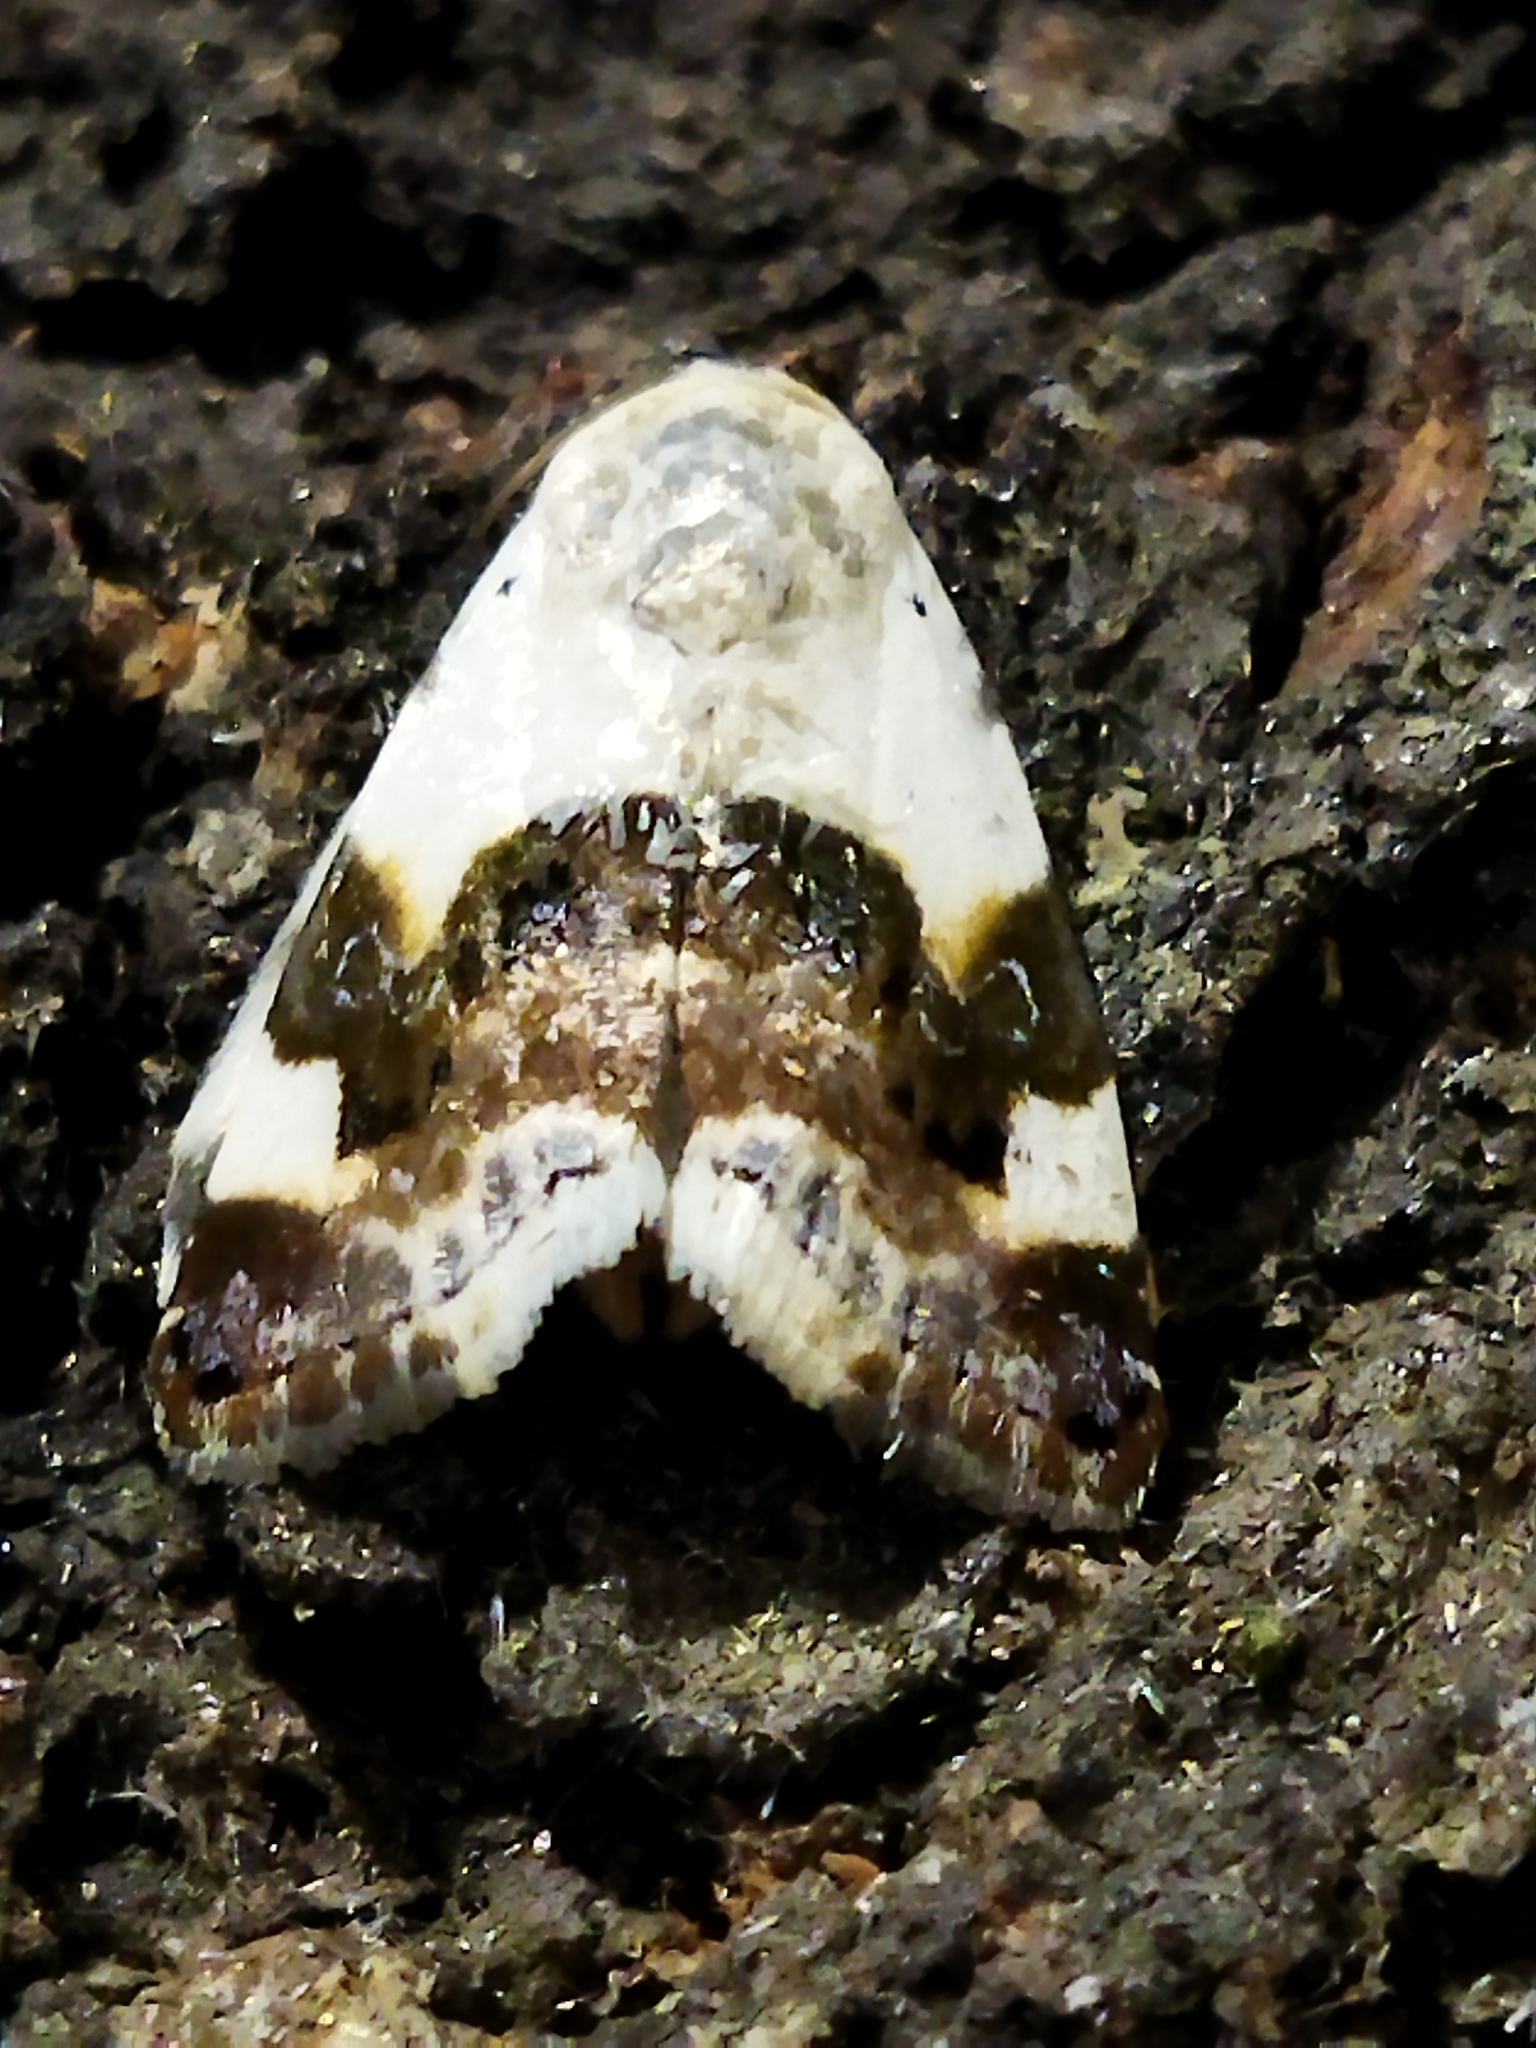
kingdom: Animalia
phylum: Arthropoda
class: Insecta
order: Lepidoptera
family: Noctuidae
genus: Acontia
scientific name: Acontia lucida
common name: Pale shoulder
